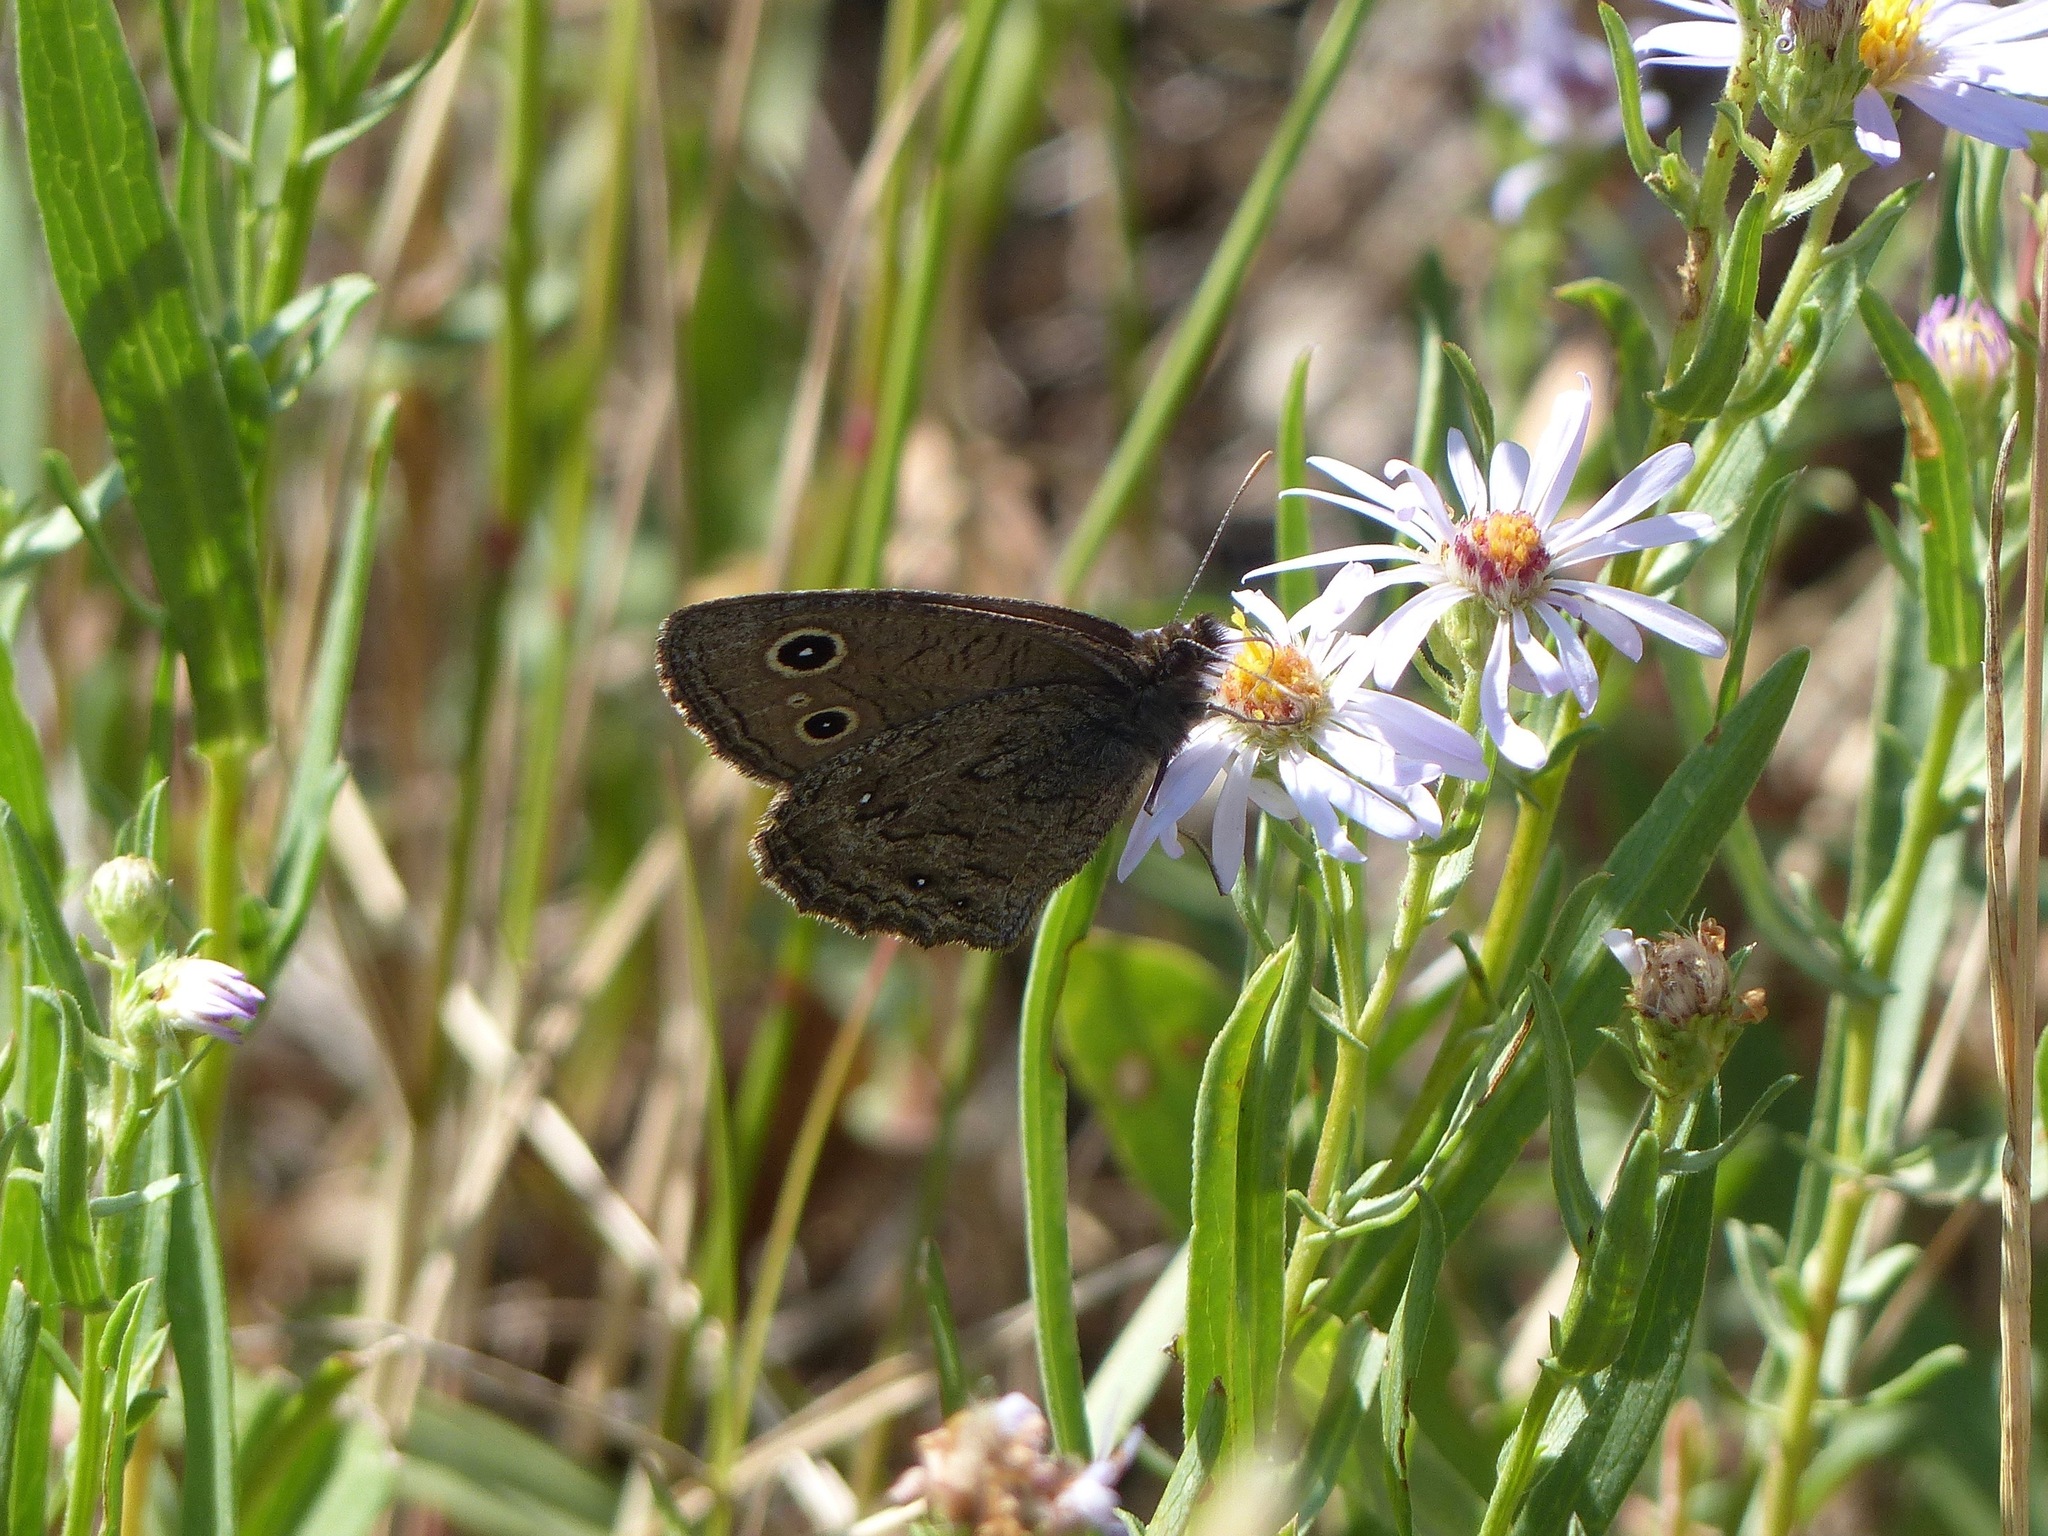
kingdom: Animalia
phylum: Arthropoda
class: Insecta
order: Lepidoptera
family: Nymphalidae
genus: Cercyonis
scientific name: Cercyonis oetus
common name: Small wood-nymph
